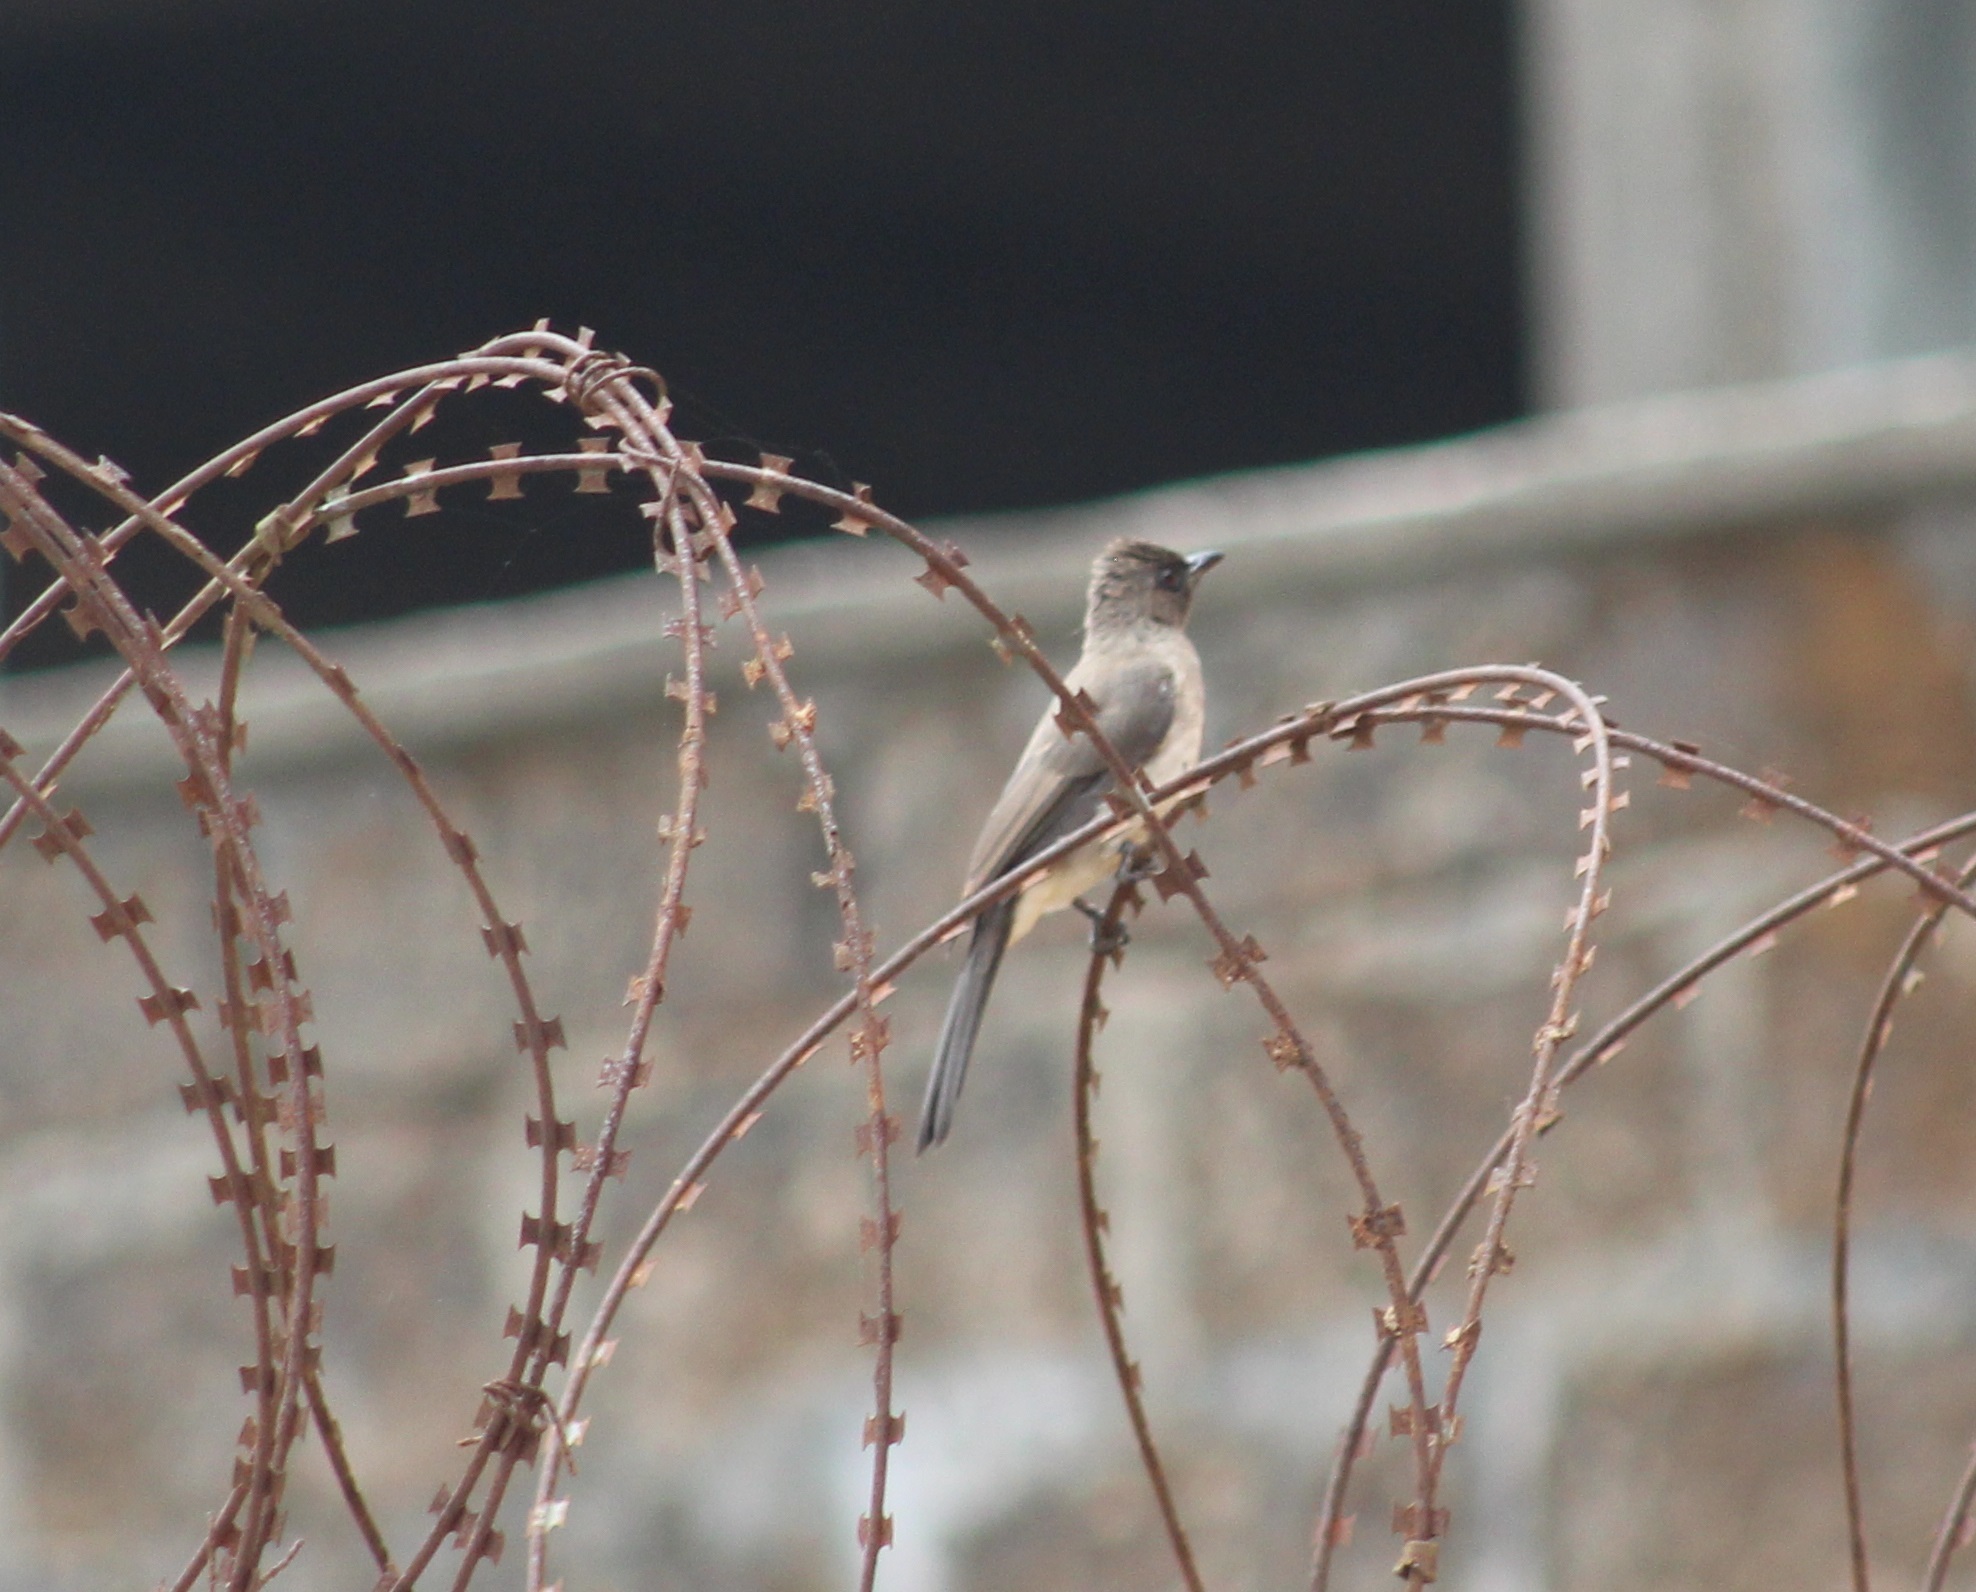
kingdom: Animalia
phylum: Chordata
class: Aves
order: Passeriformes
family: Pycnonotidae
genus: Pycnonotus
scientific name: Pycnonotus barbatus
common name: Common bulbul
